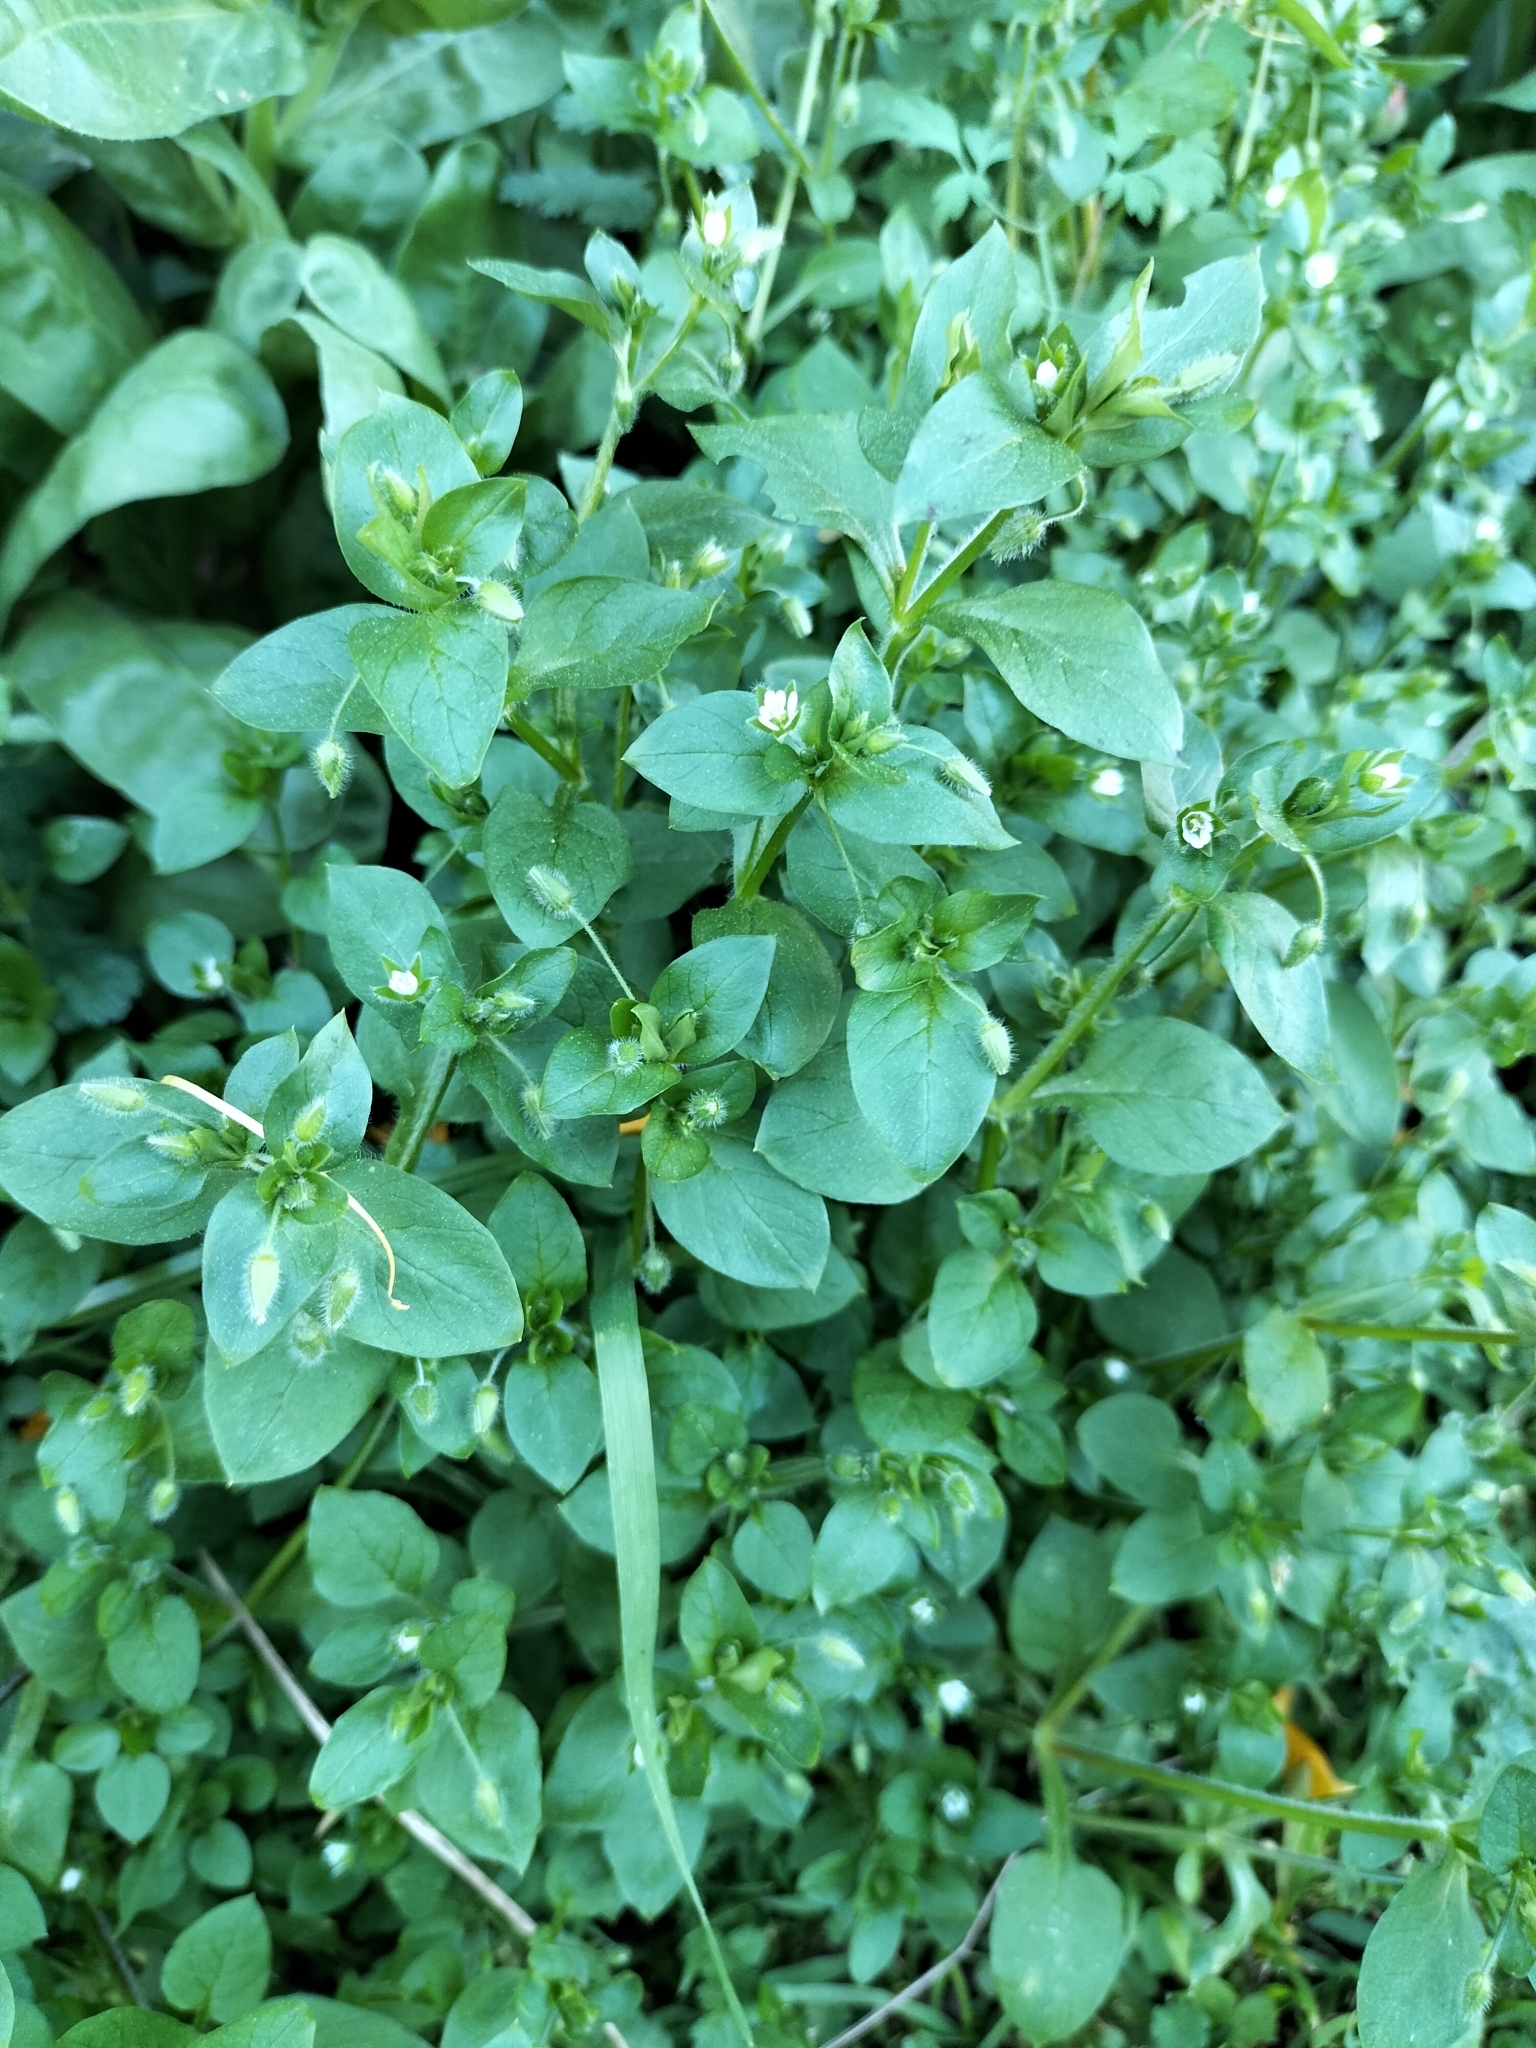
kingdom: Plantae
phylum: Tracheophyta
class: Magnoliopsida
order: Caryophyllales
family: Caryophyllaceae
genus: Stellaria
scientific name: Stellaria media
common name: Common chickweed
